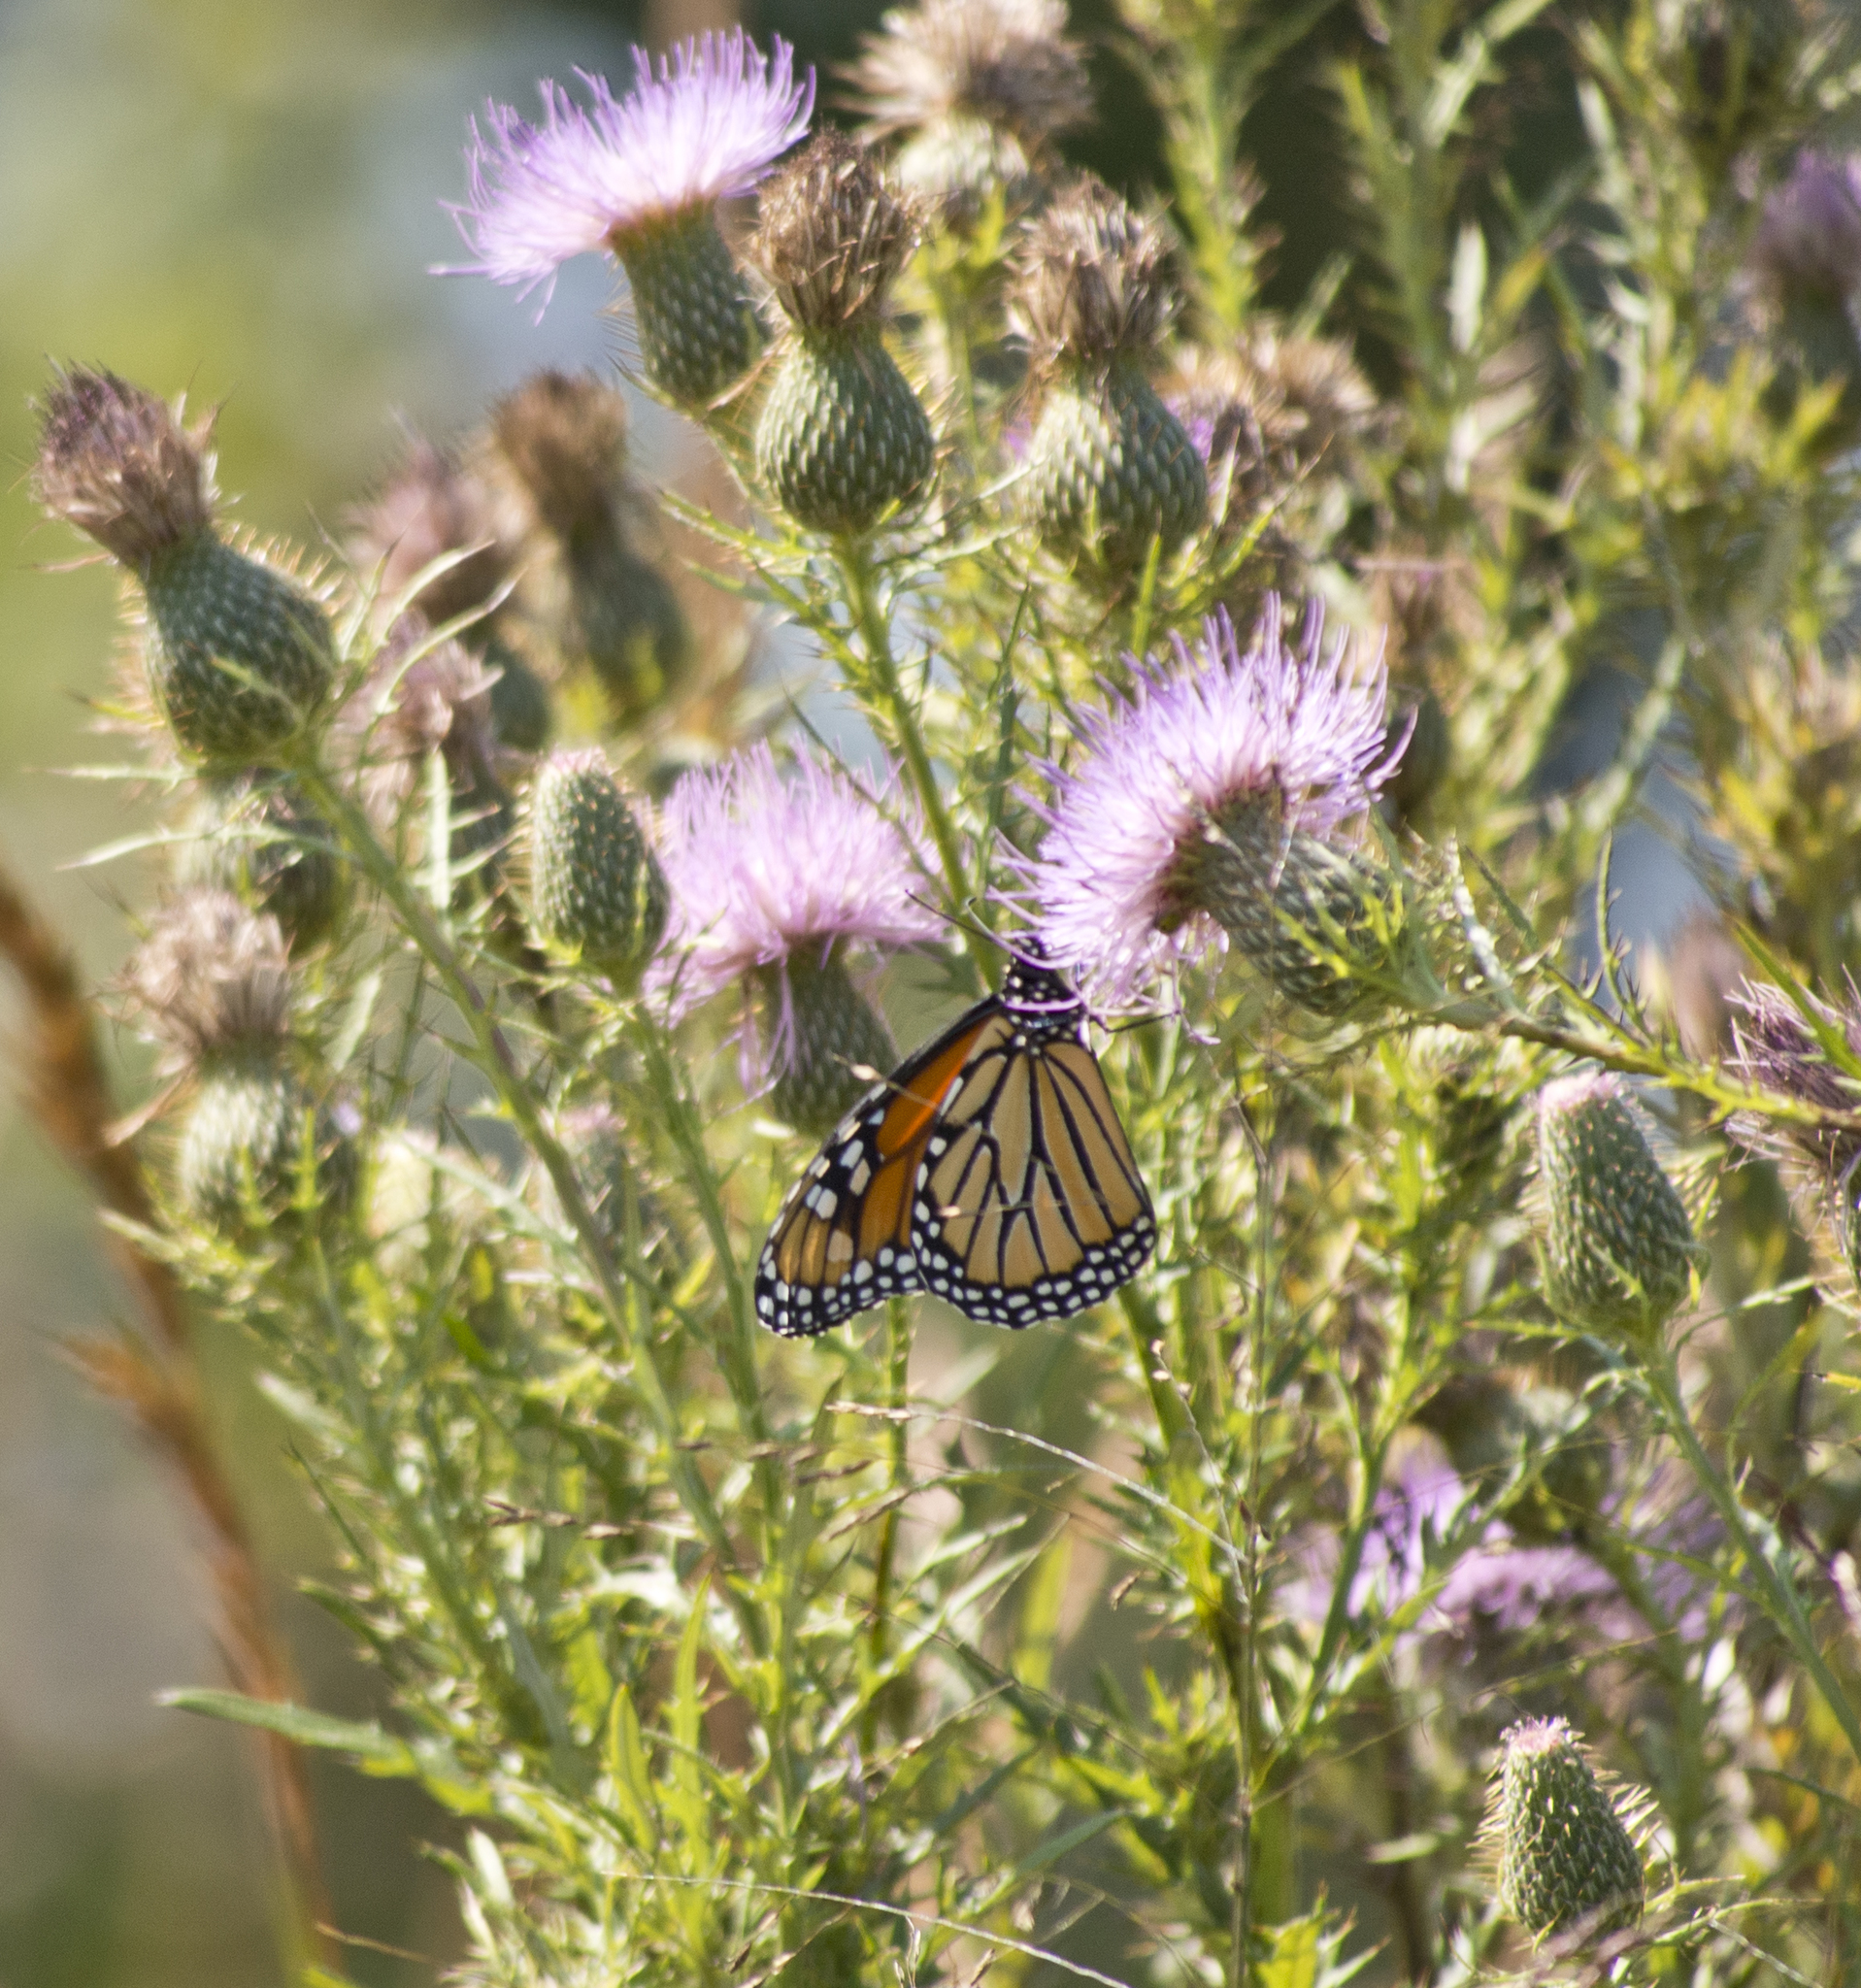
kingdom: Animalia
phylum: Arthropoda
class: Insecta
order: Lepidoptera
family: Nymphalidae
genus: Danaus
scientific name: Danaus plexippus
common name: Monarch
